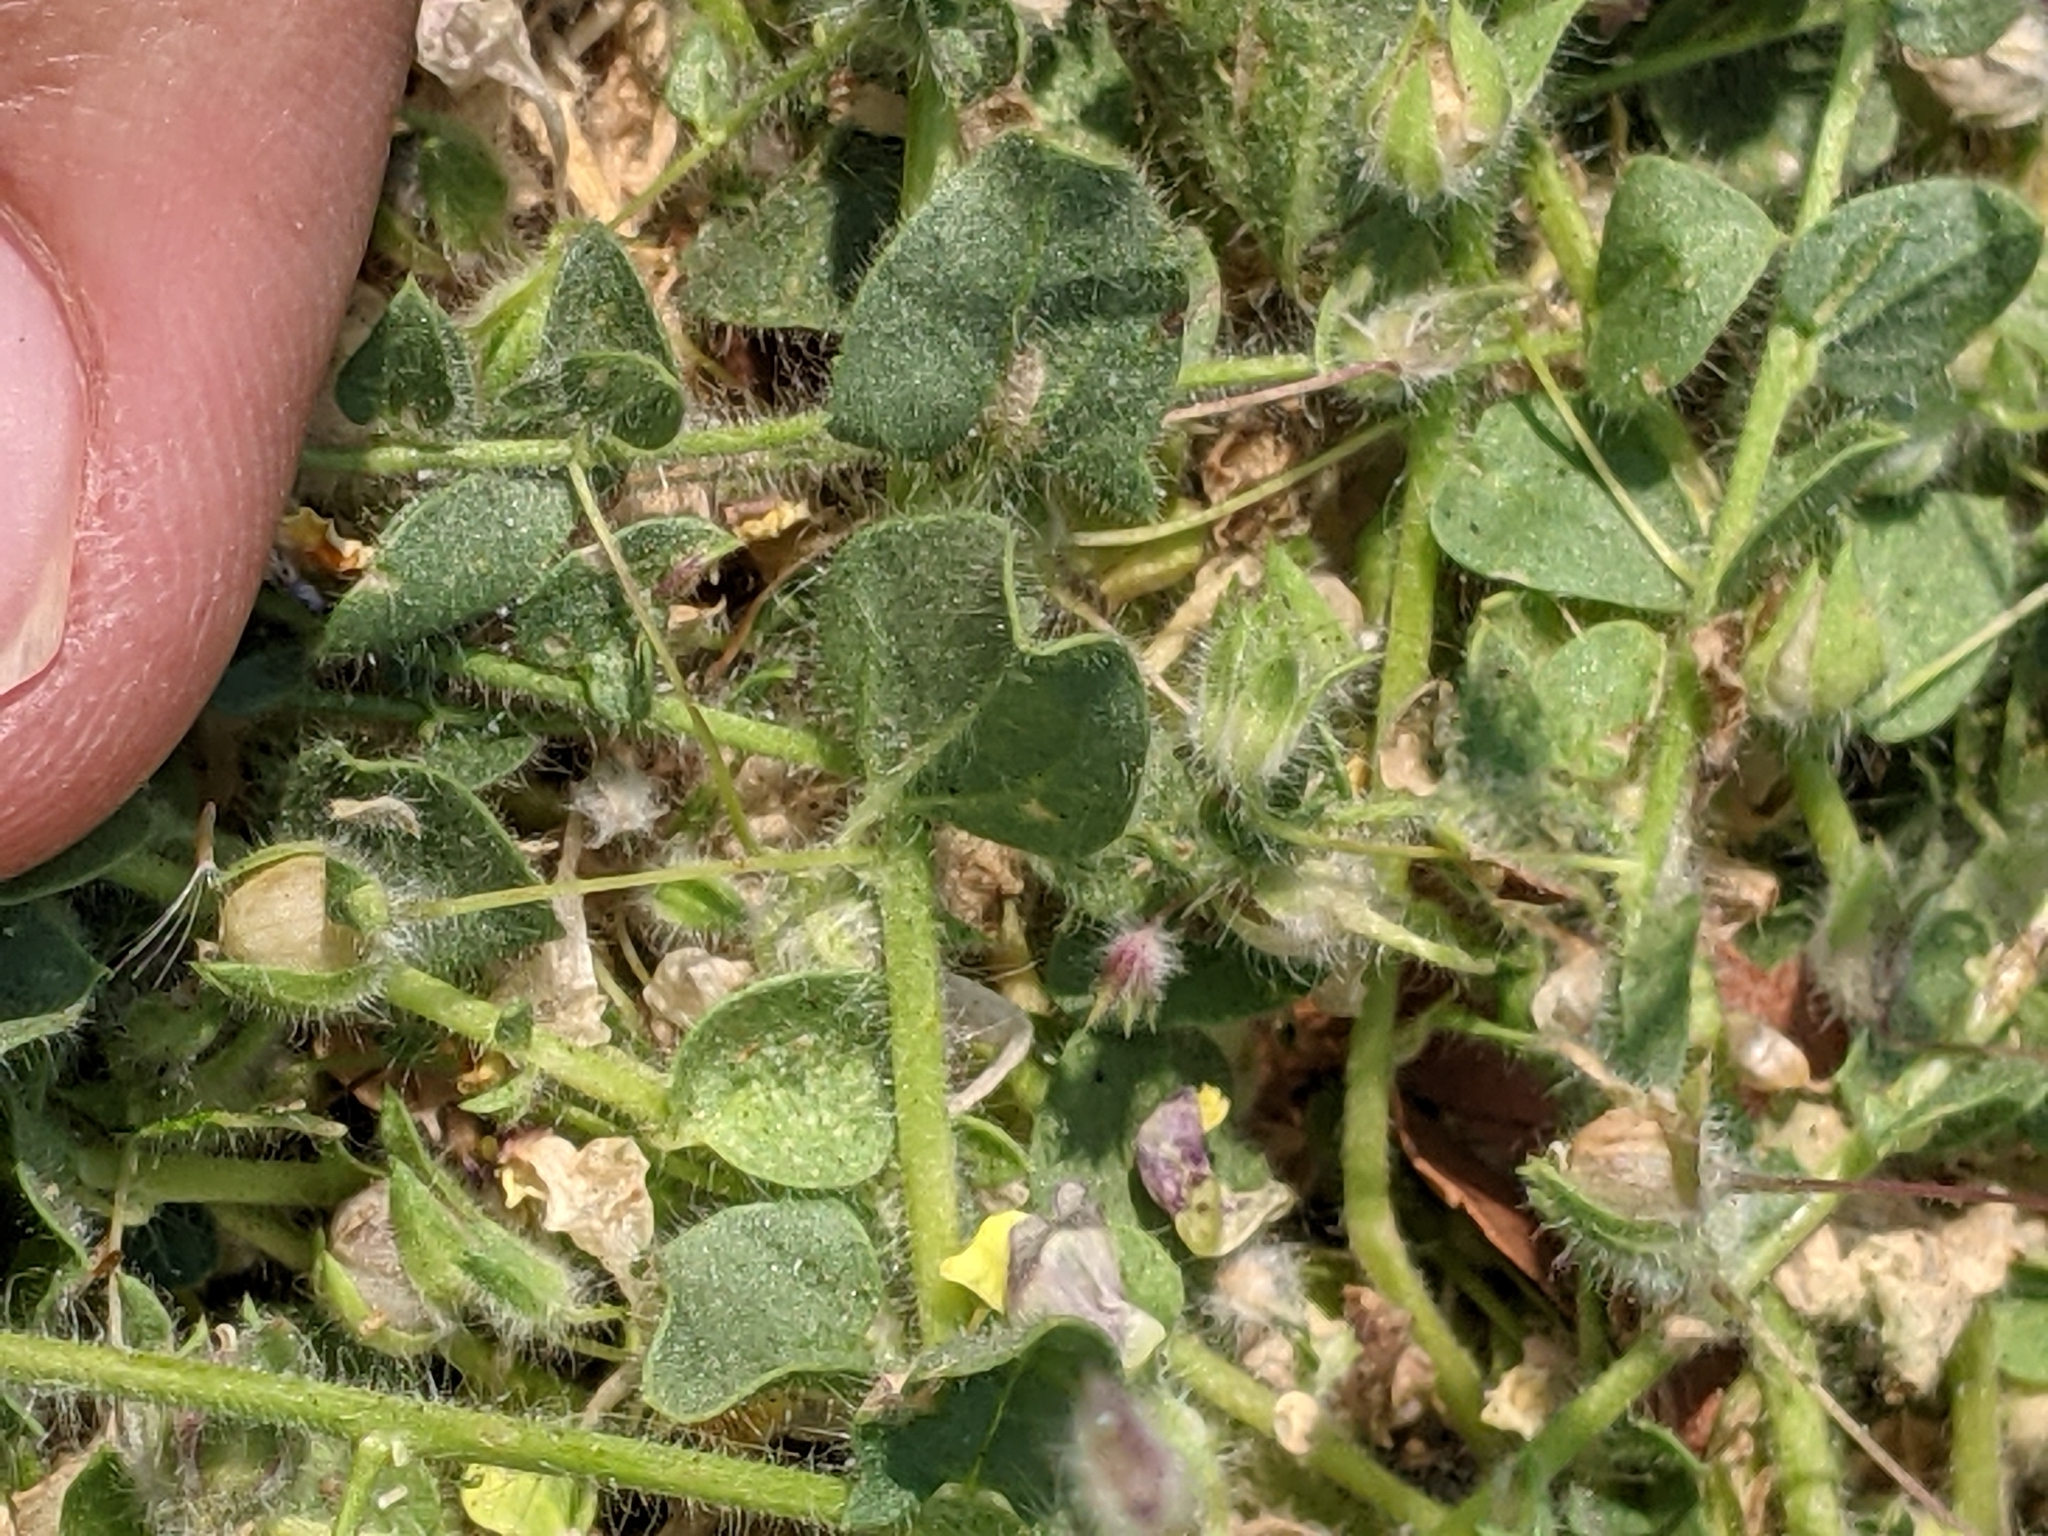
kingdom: Plantae
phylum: Tracheophyta
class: Magnoliopsida
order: Lamiales
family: Plantaginaceae
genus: Kickxia
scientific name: Kickxia spuria
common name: Round-leaved fluellen
